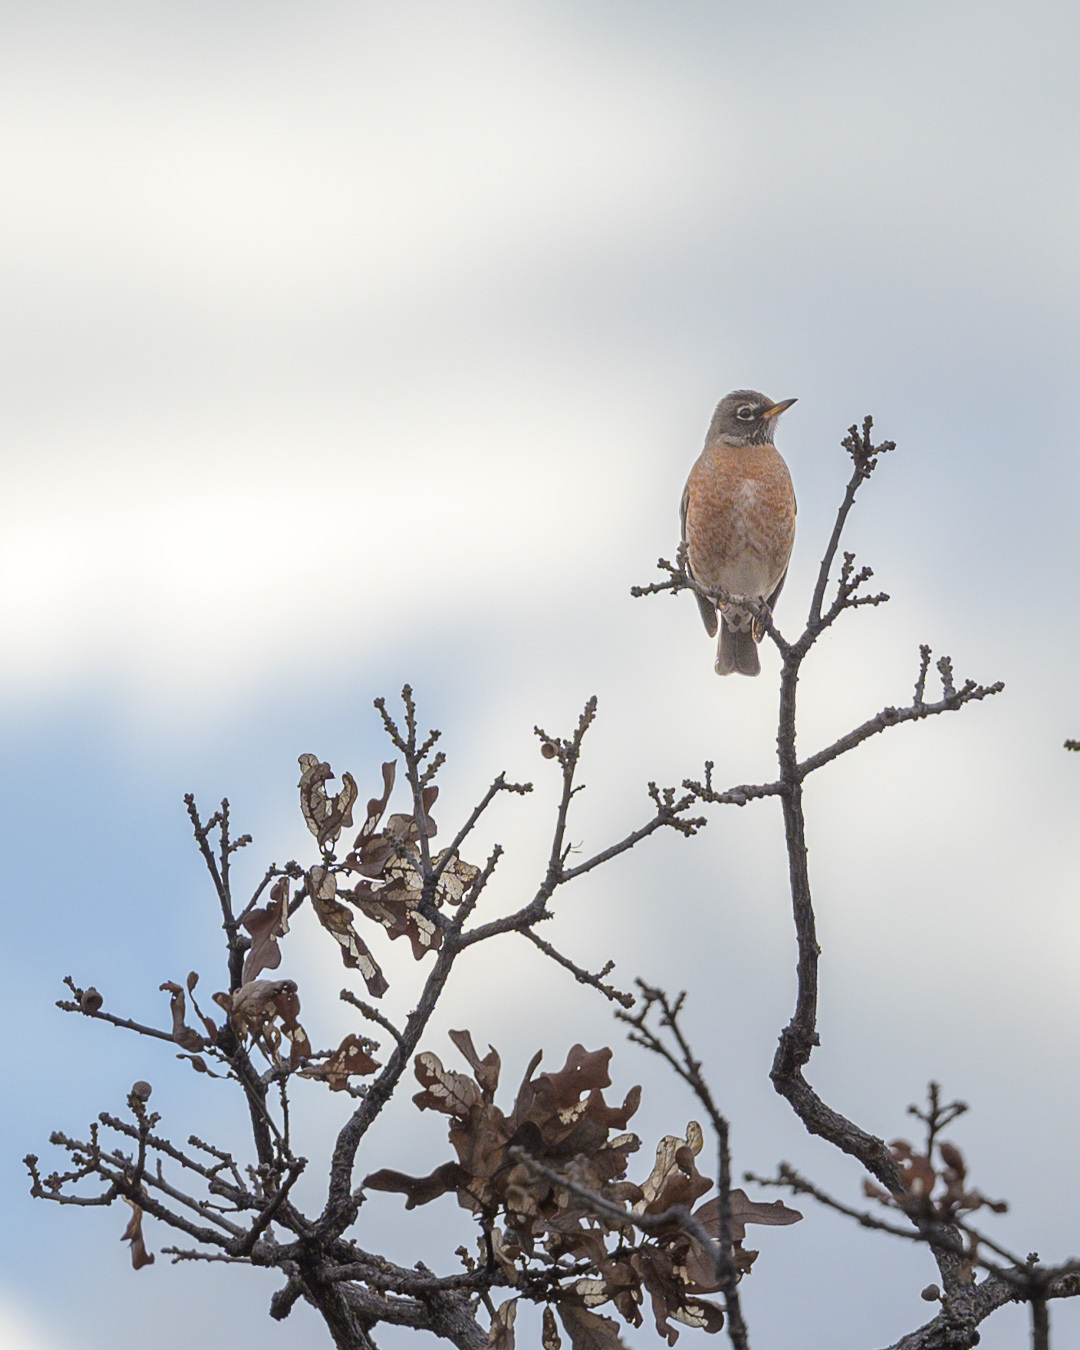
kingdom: Animalia
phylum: Chordata
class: Aves
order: Passeriformes
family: Turdidae
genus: Turdus
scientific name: Turdus migratorius
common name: American robin
